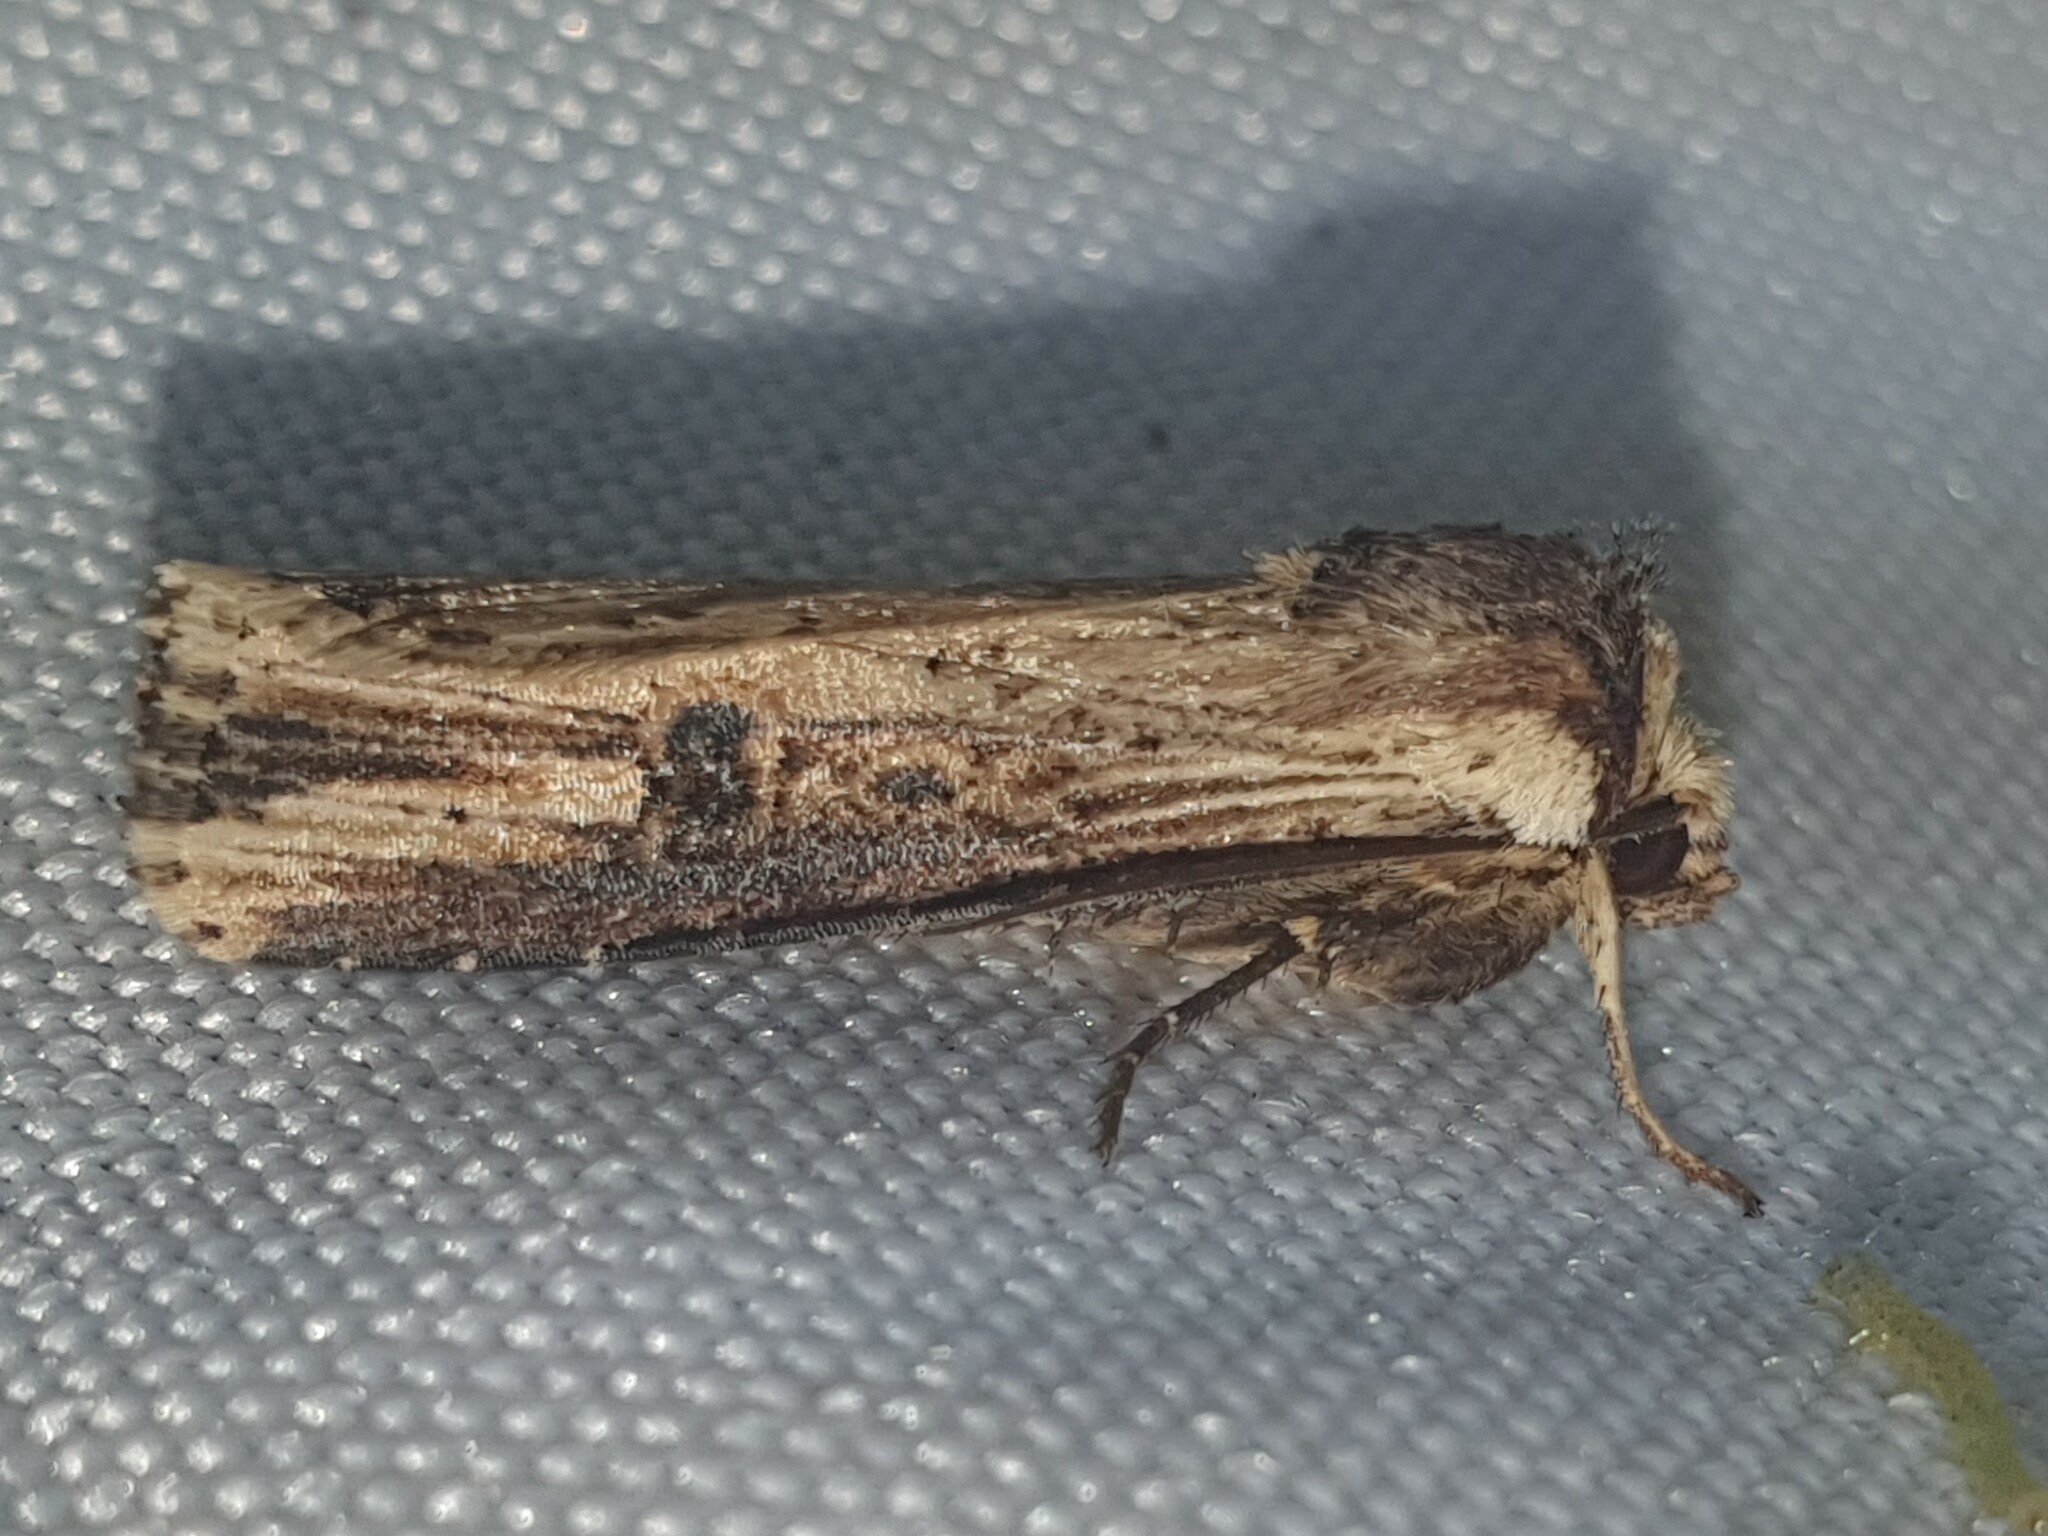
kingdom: Animalia
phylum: Arthropoda
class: Insecta
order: Lepidoptera
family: Noctuidae
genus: Axylia
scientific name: Axylia putris
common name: Flame
